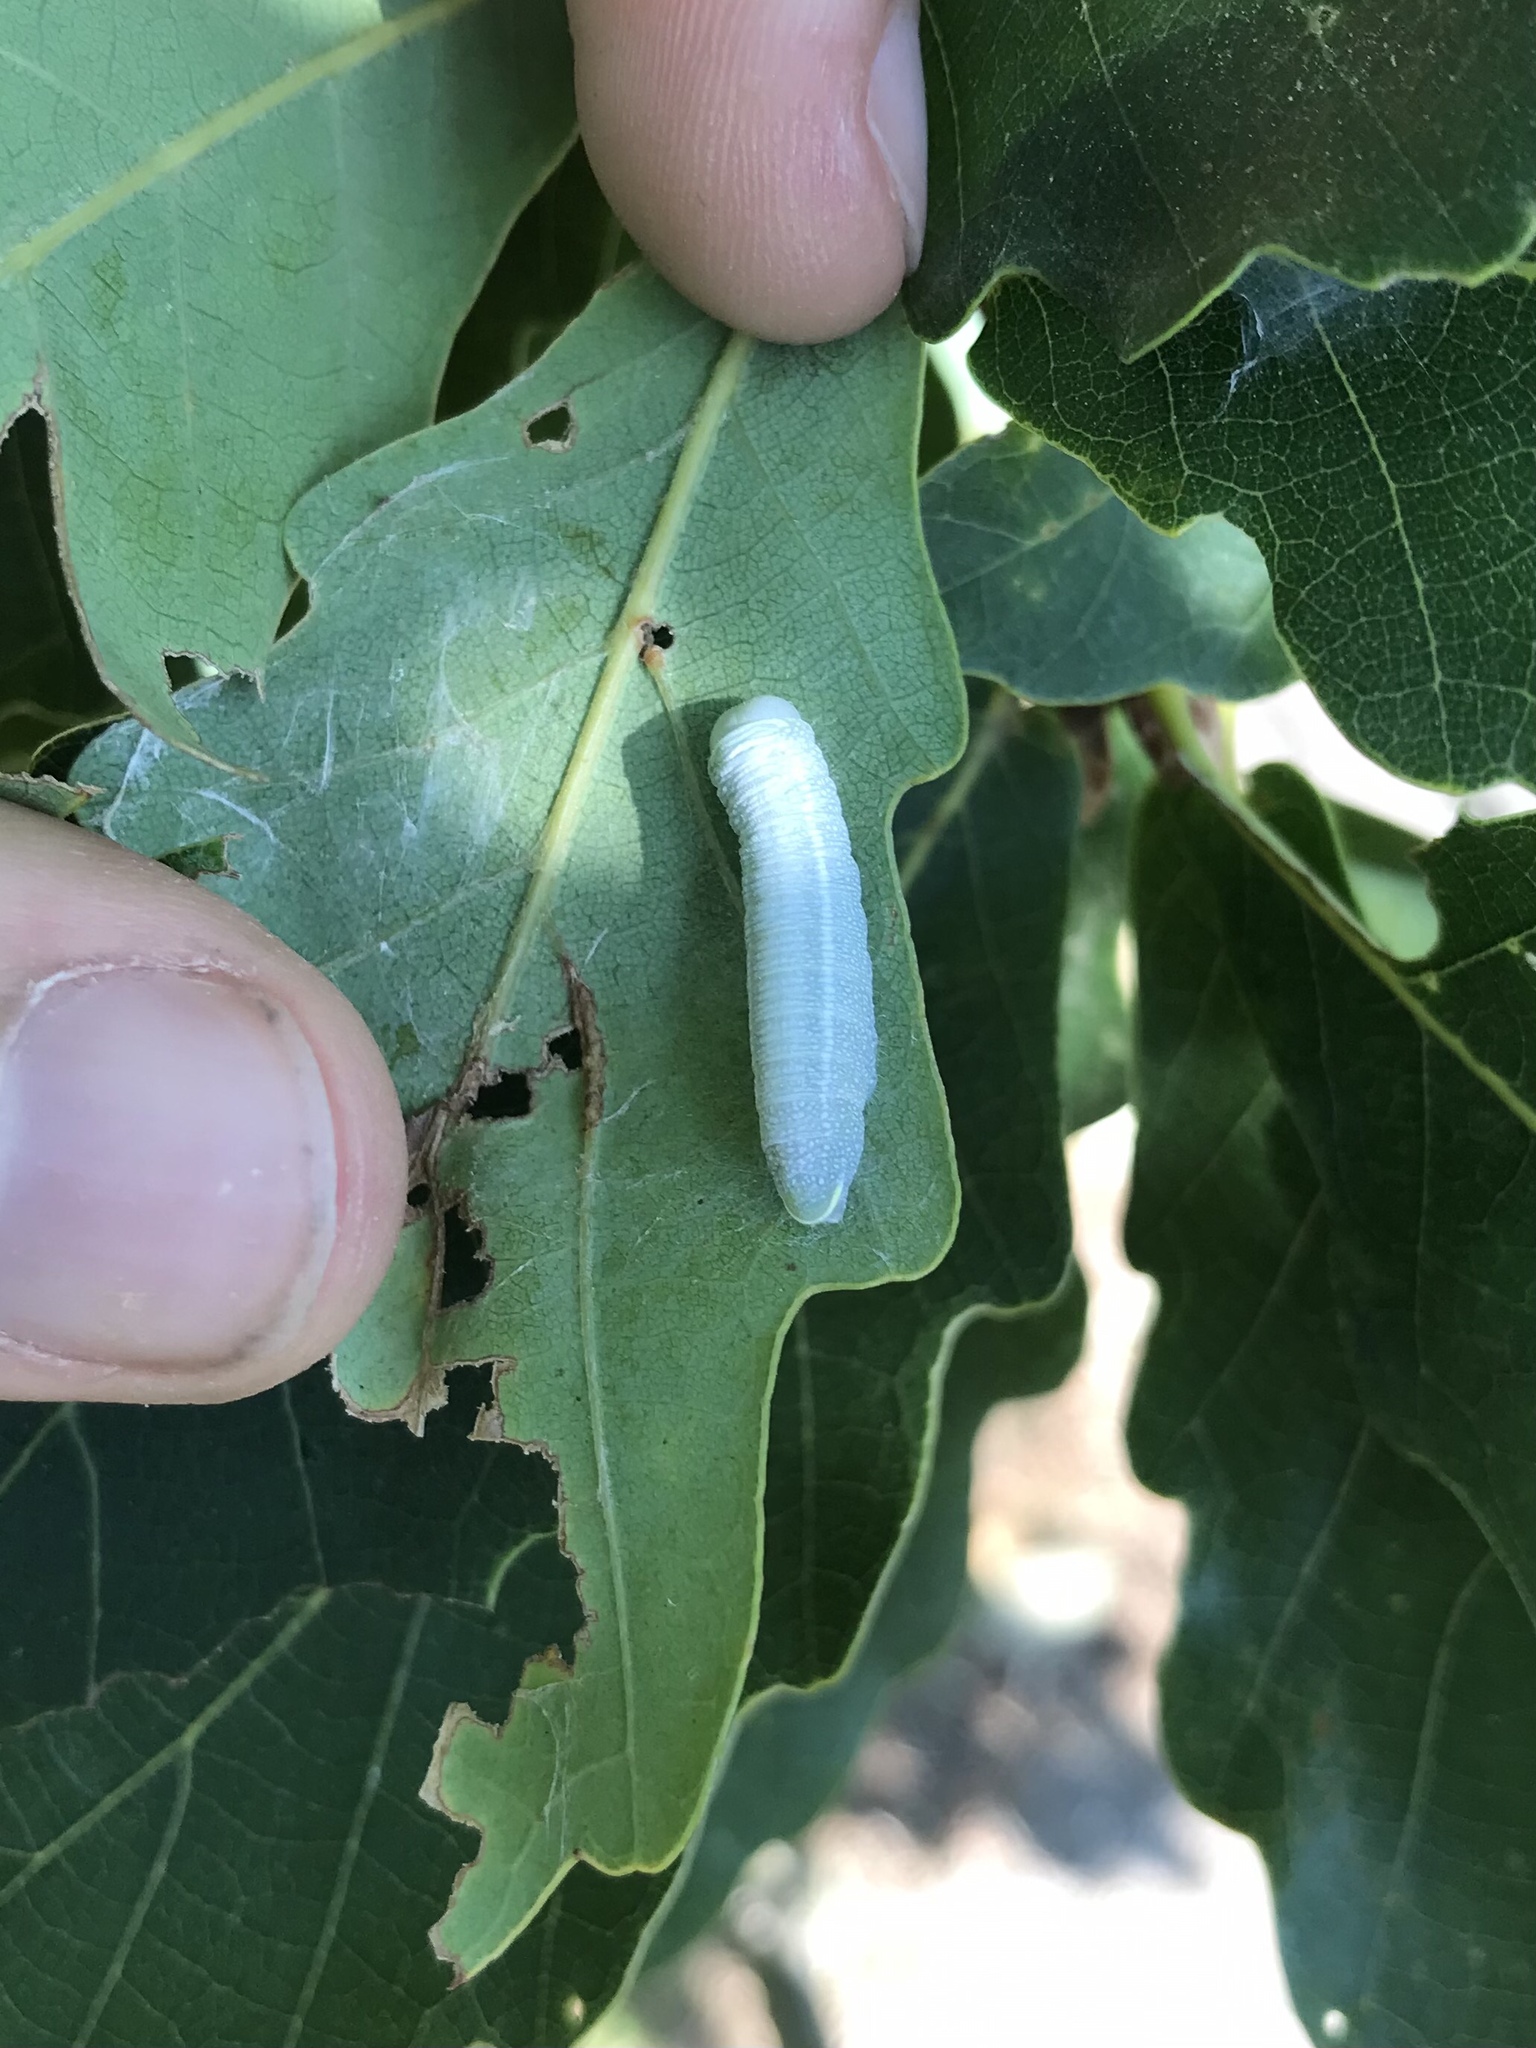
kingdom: Animalia
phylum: Arthropoda
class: Insecta
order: Lepidoptera
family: Notodontidae
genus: Nadata
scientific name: Nadata gibbosa
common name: White-dotted prominent
